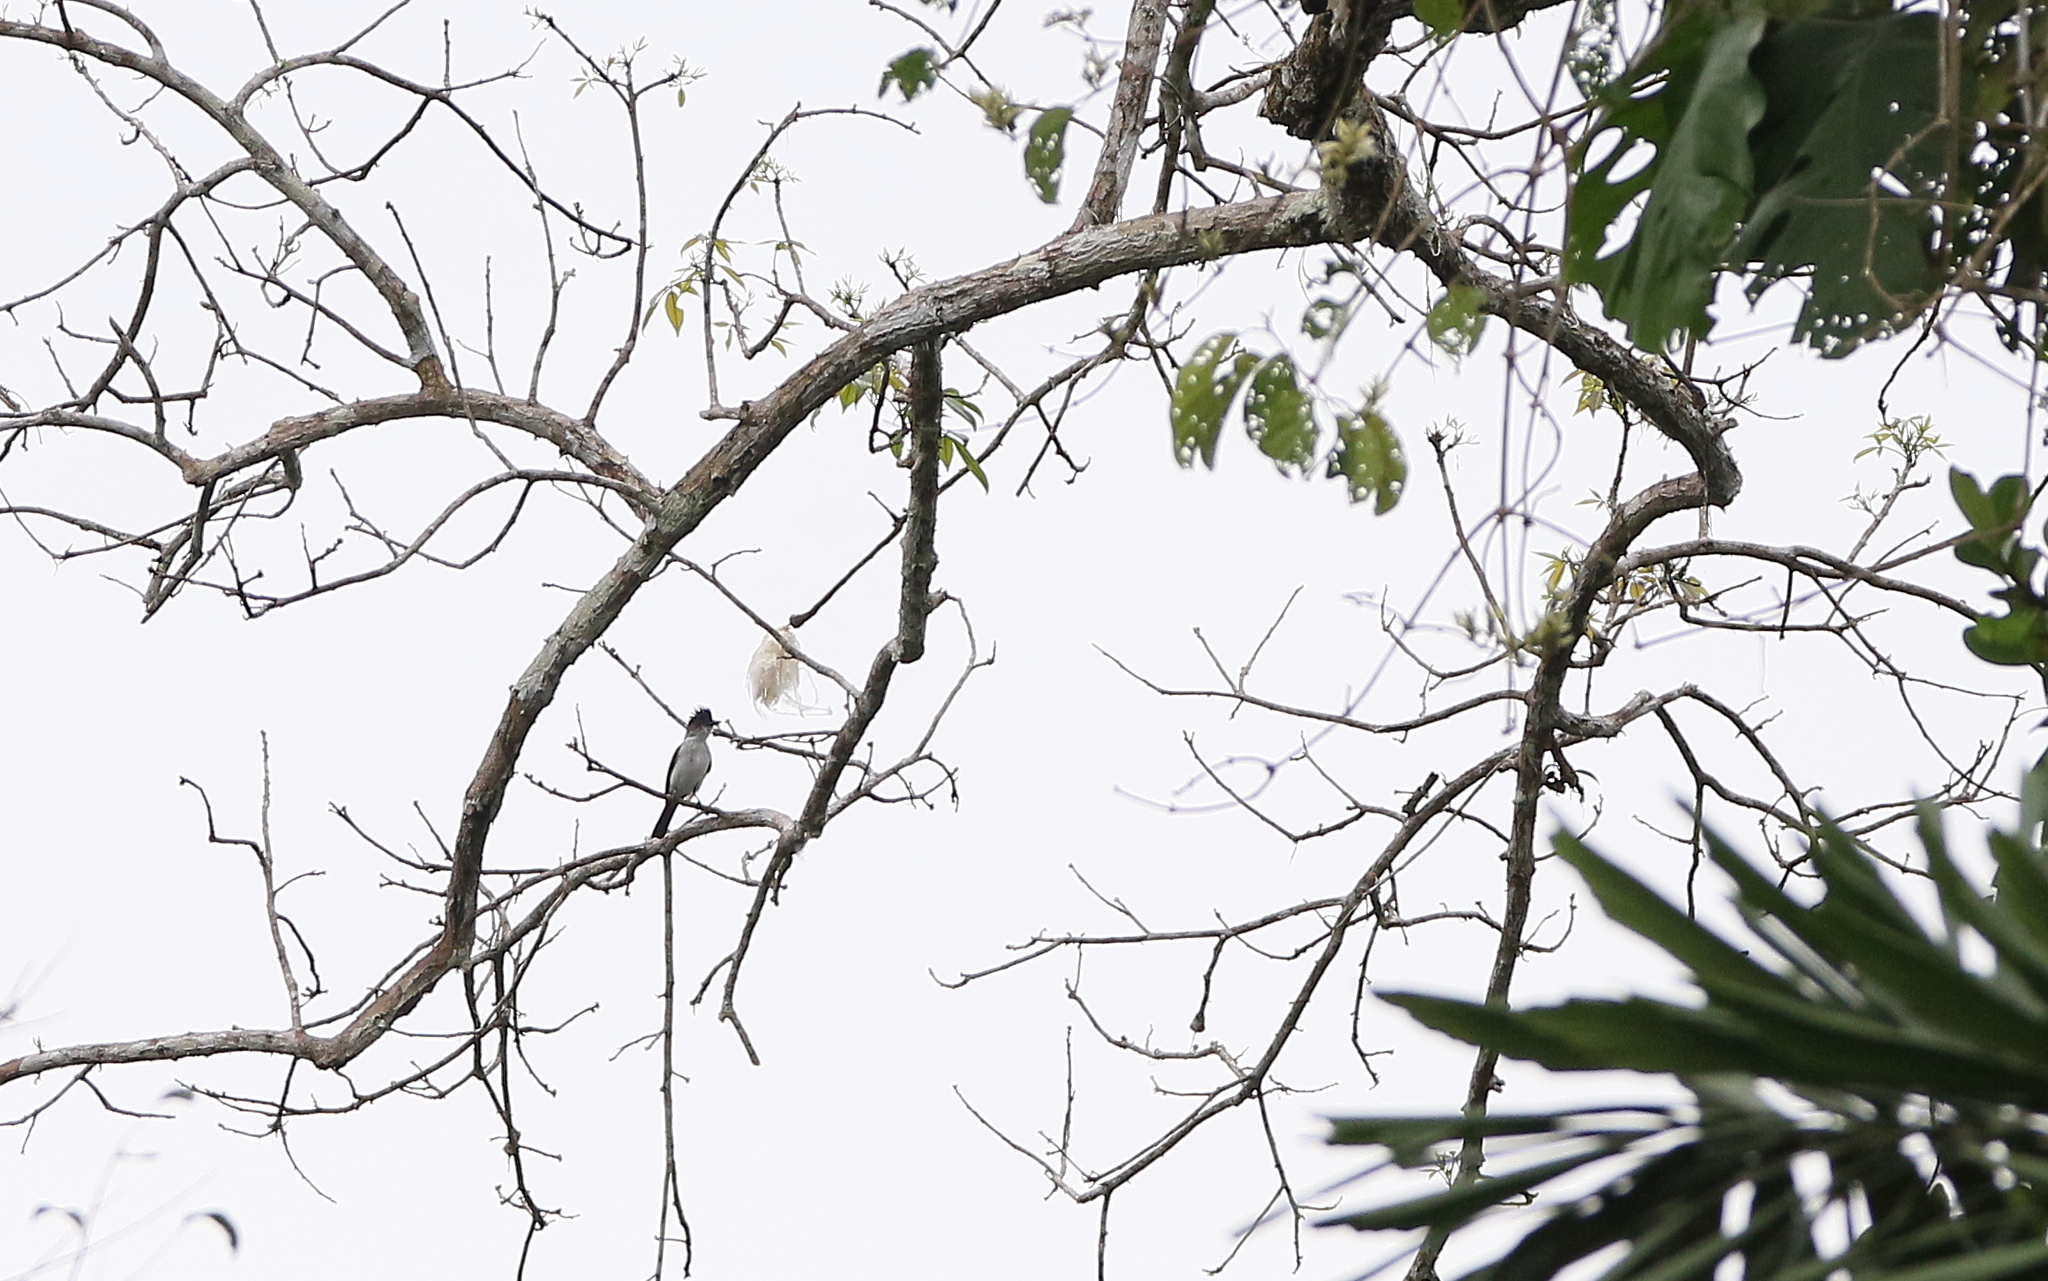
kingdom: Animalia
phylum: Chordata
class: Aves
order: Passeriformes
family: Tyrannidae
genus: Sirystes
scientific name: Sirystes albocinereus
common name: White-rumped sirystes
